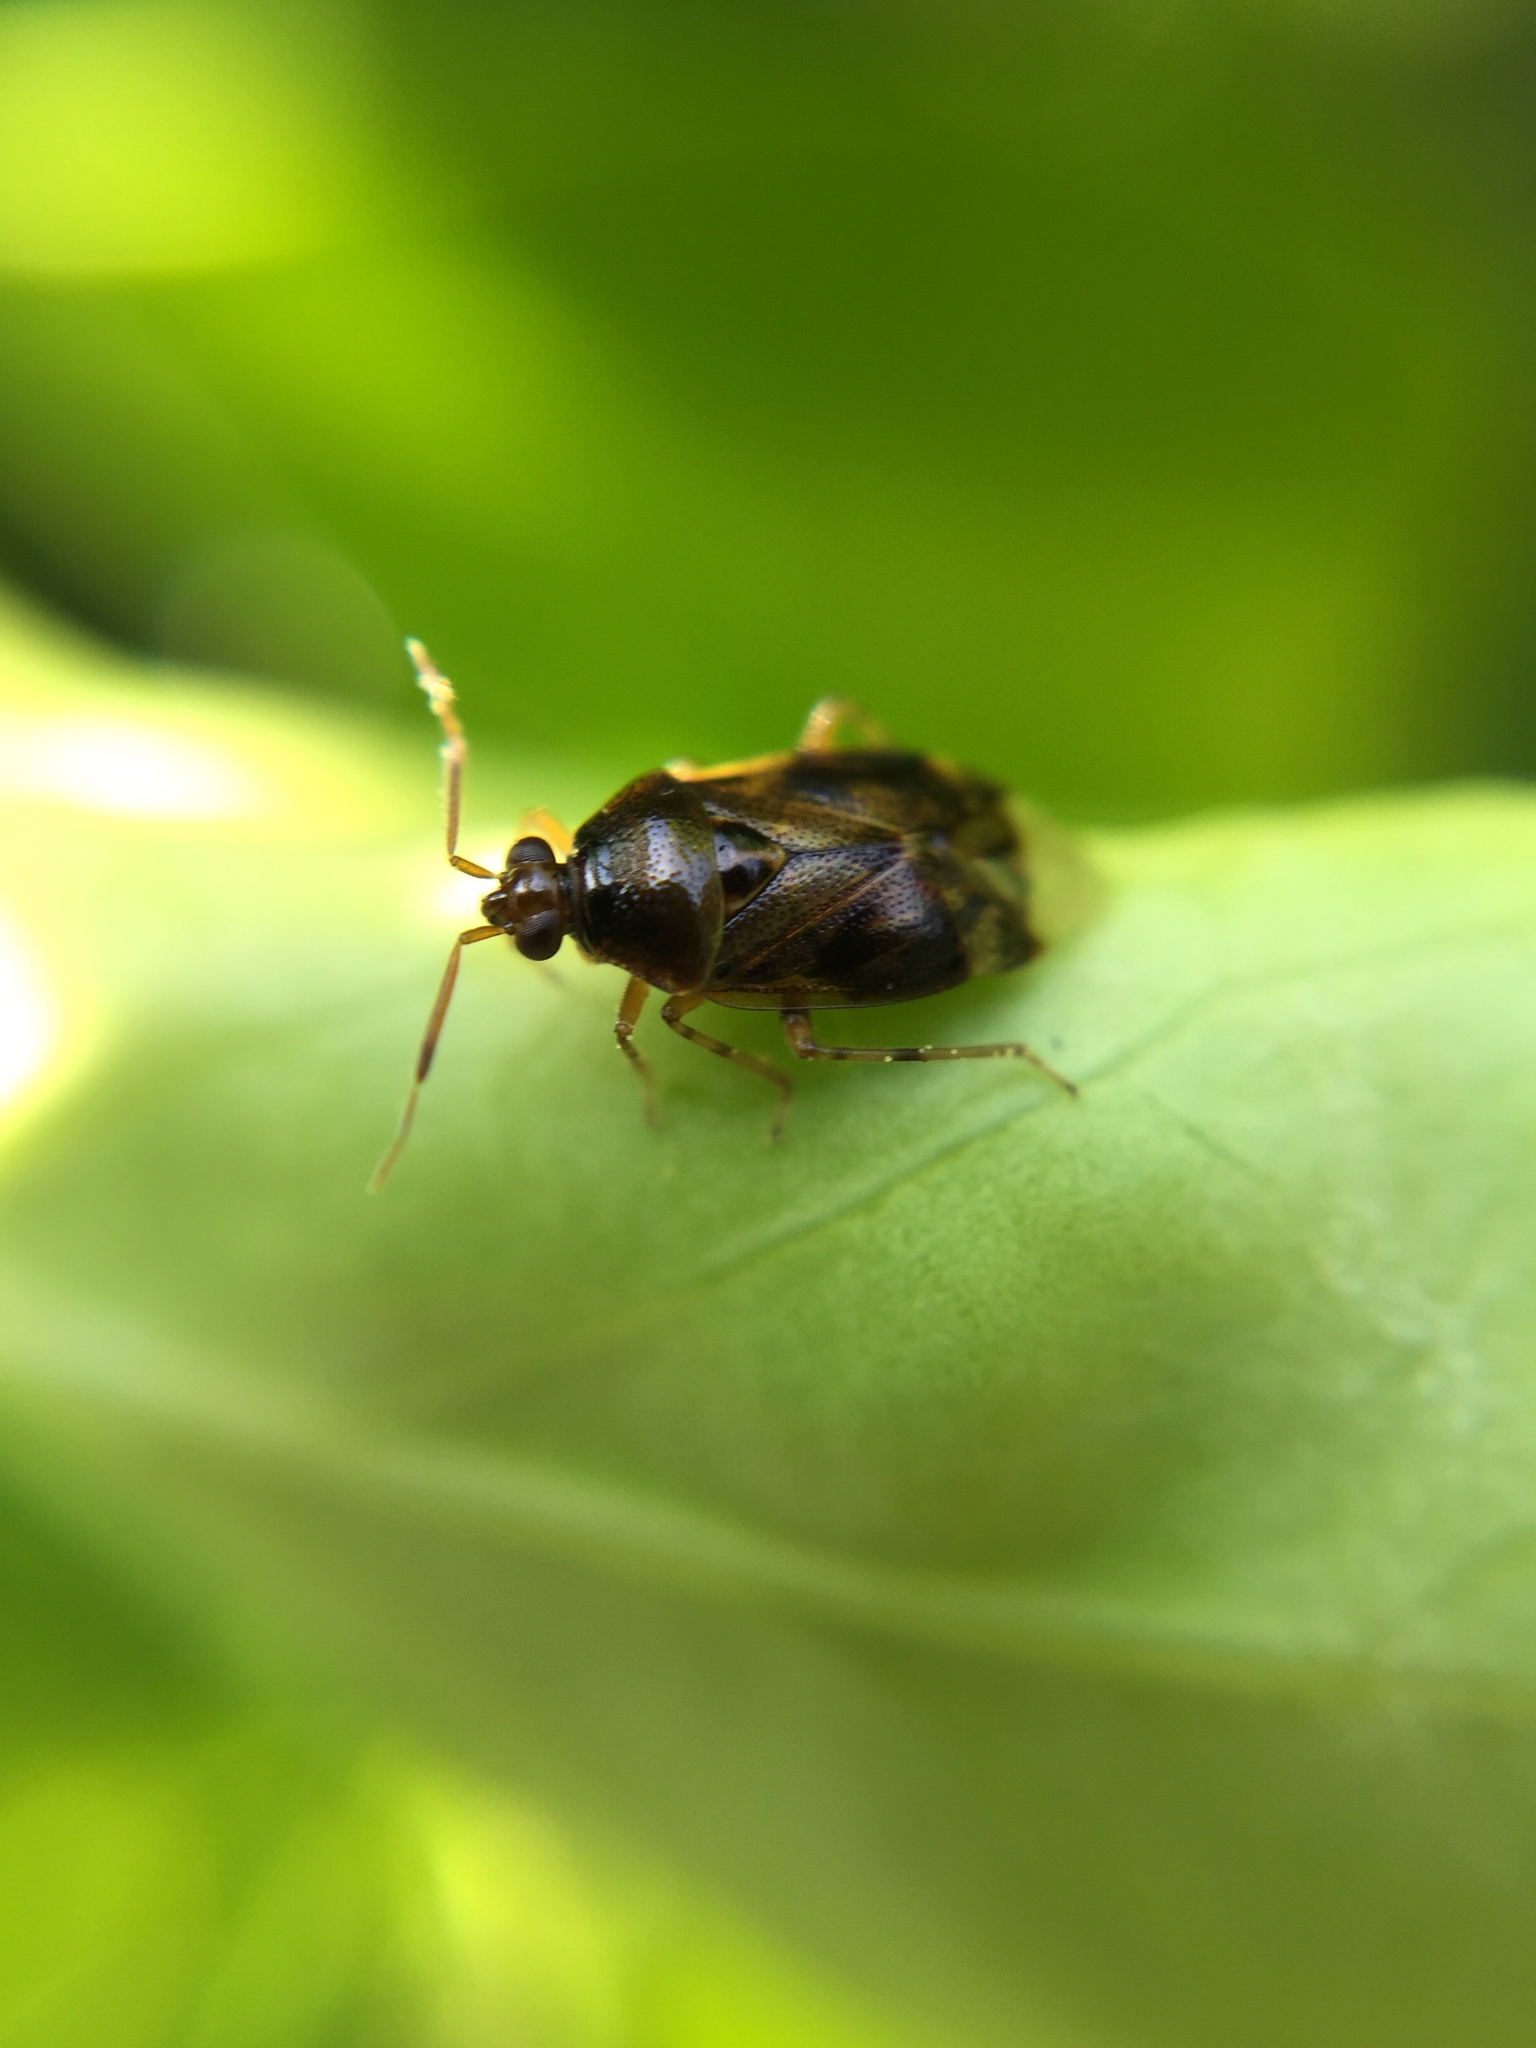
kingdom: Animalia
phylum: Arthropoda
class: Insecta
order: Hemiptera
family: Miridae
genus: Deraeocoris
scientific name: Deraeocoris lutescens
